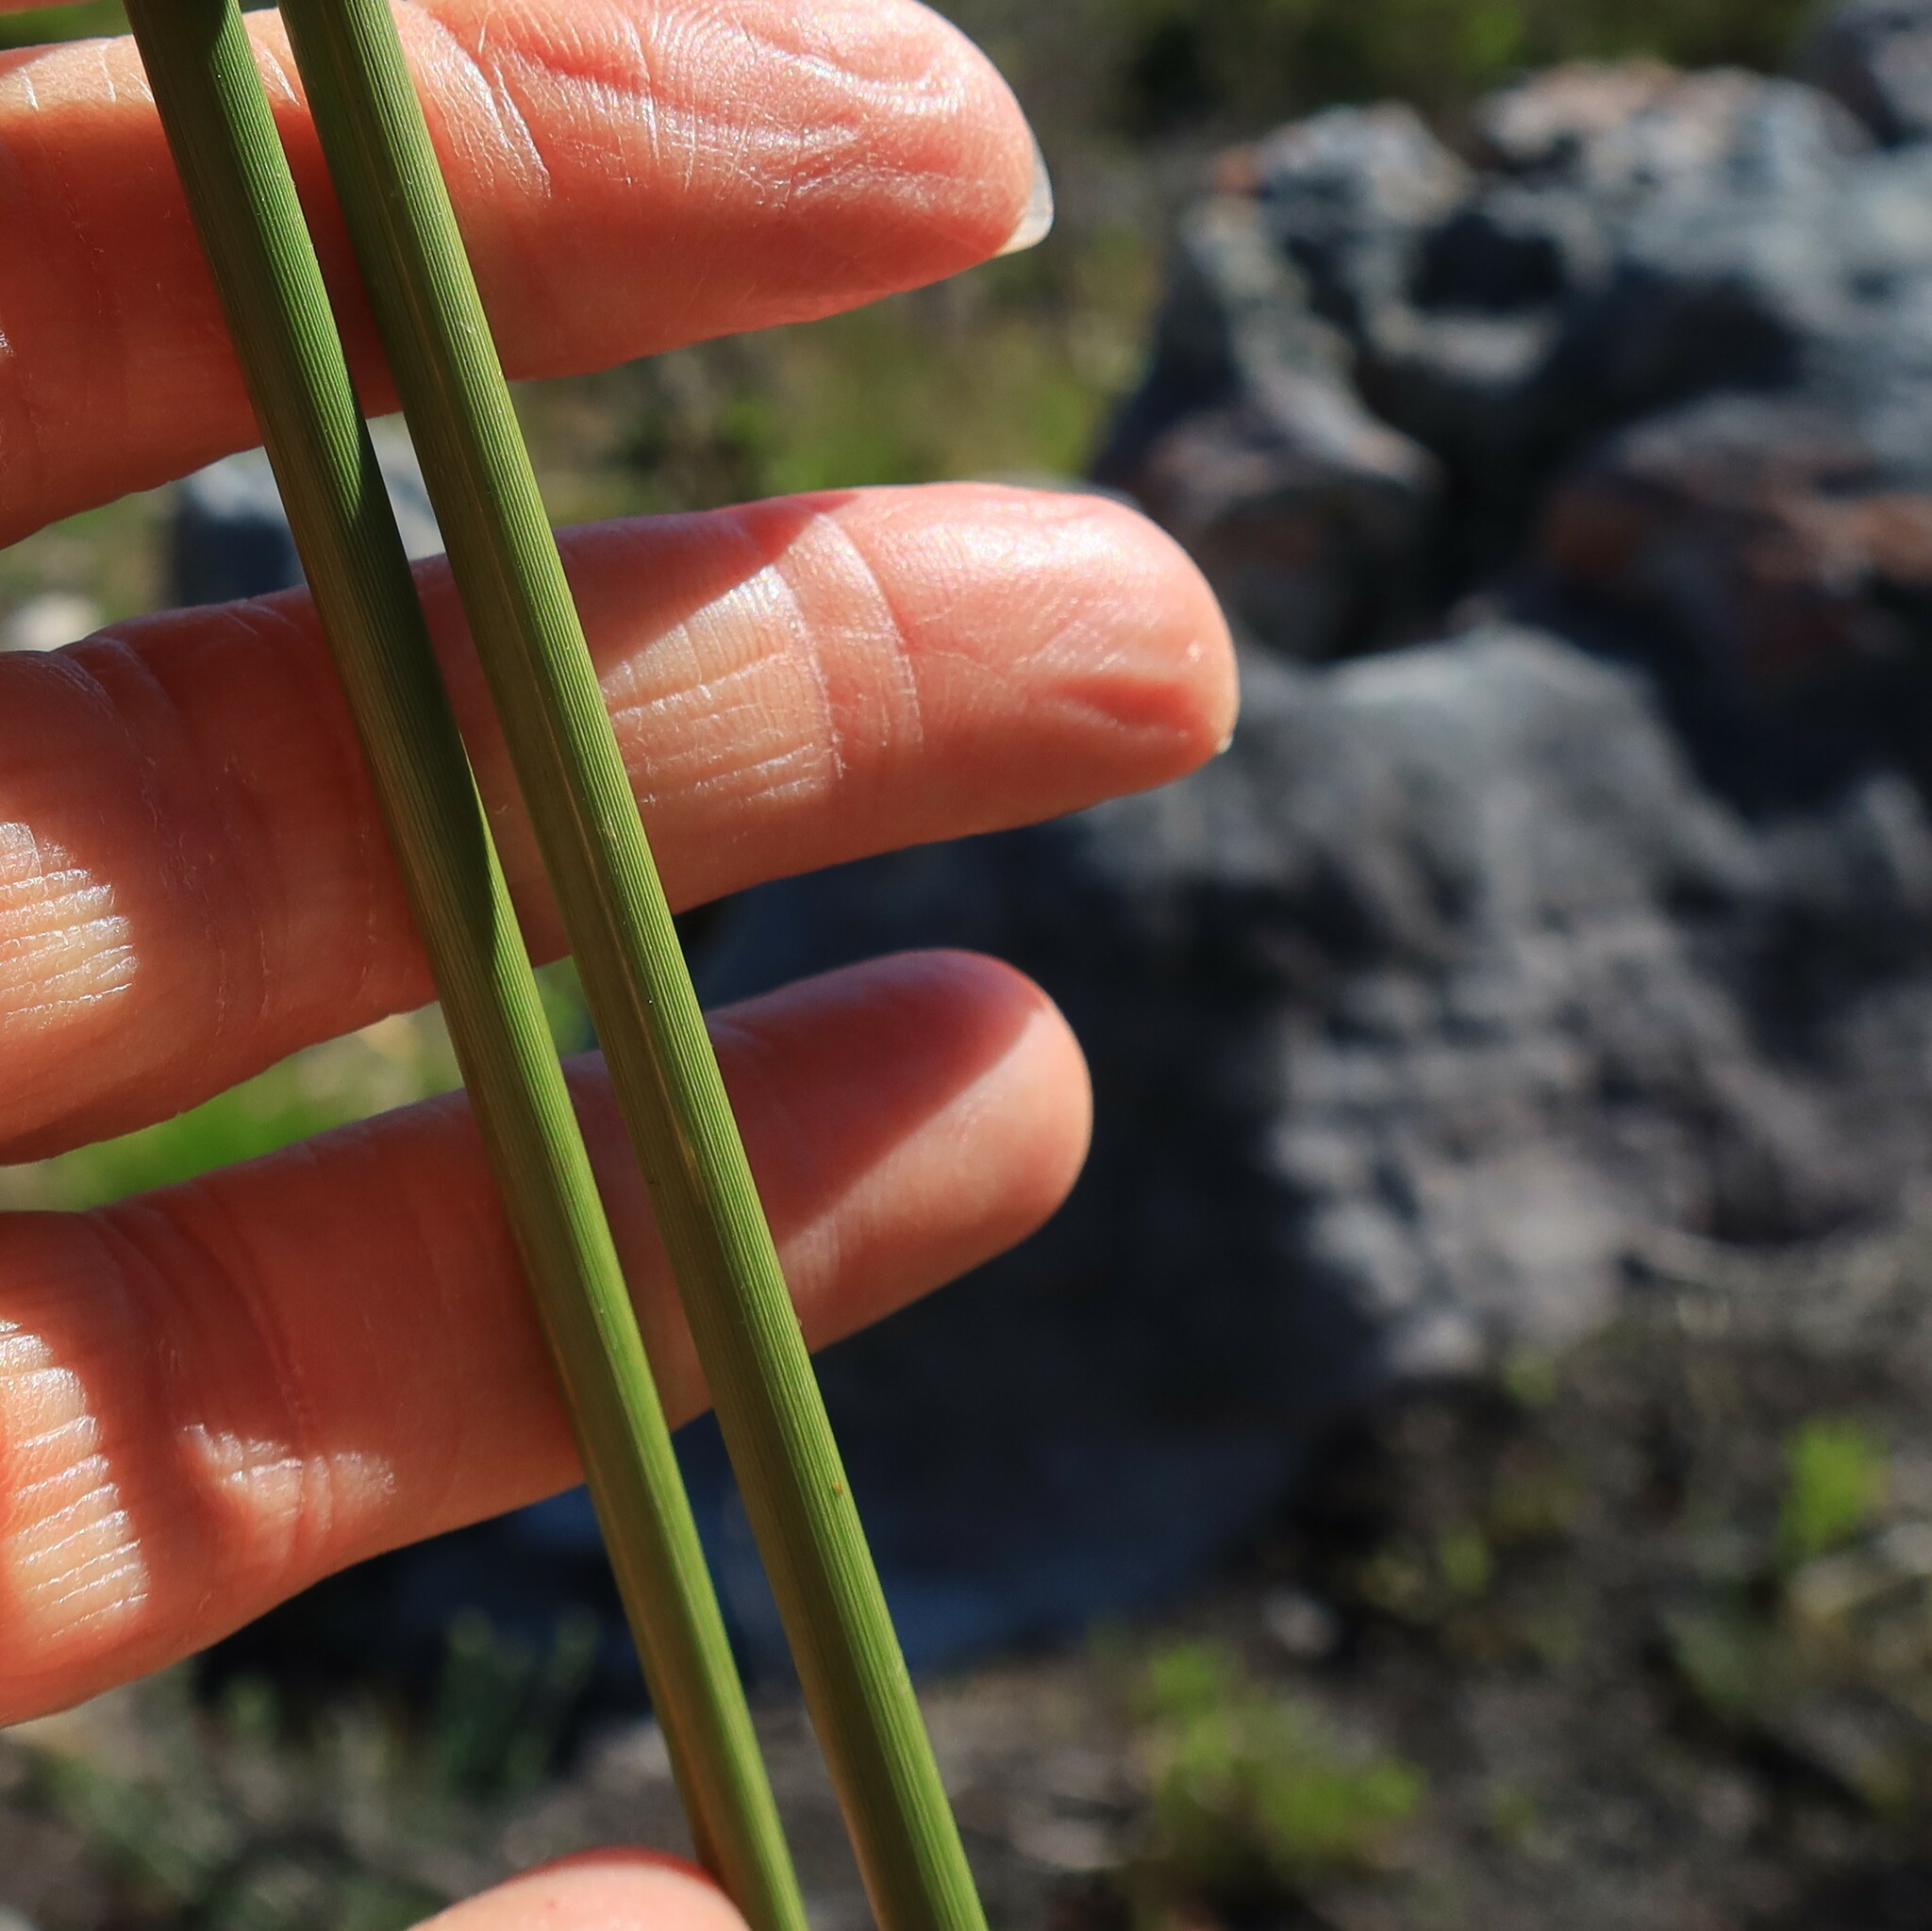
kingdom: Plantae
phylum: Tracheophyta
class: Liliopsida
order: Asparagales
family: Iridaceae
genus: Bobartia
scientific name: Bobartia indica
